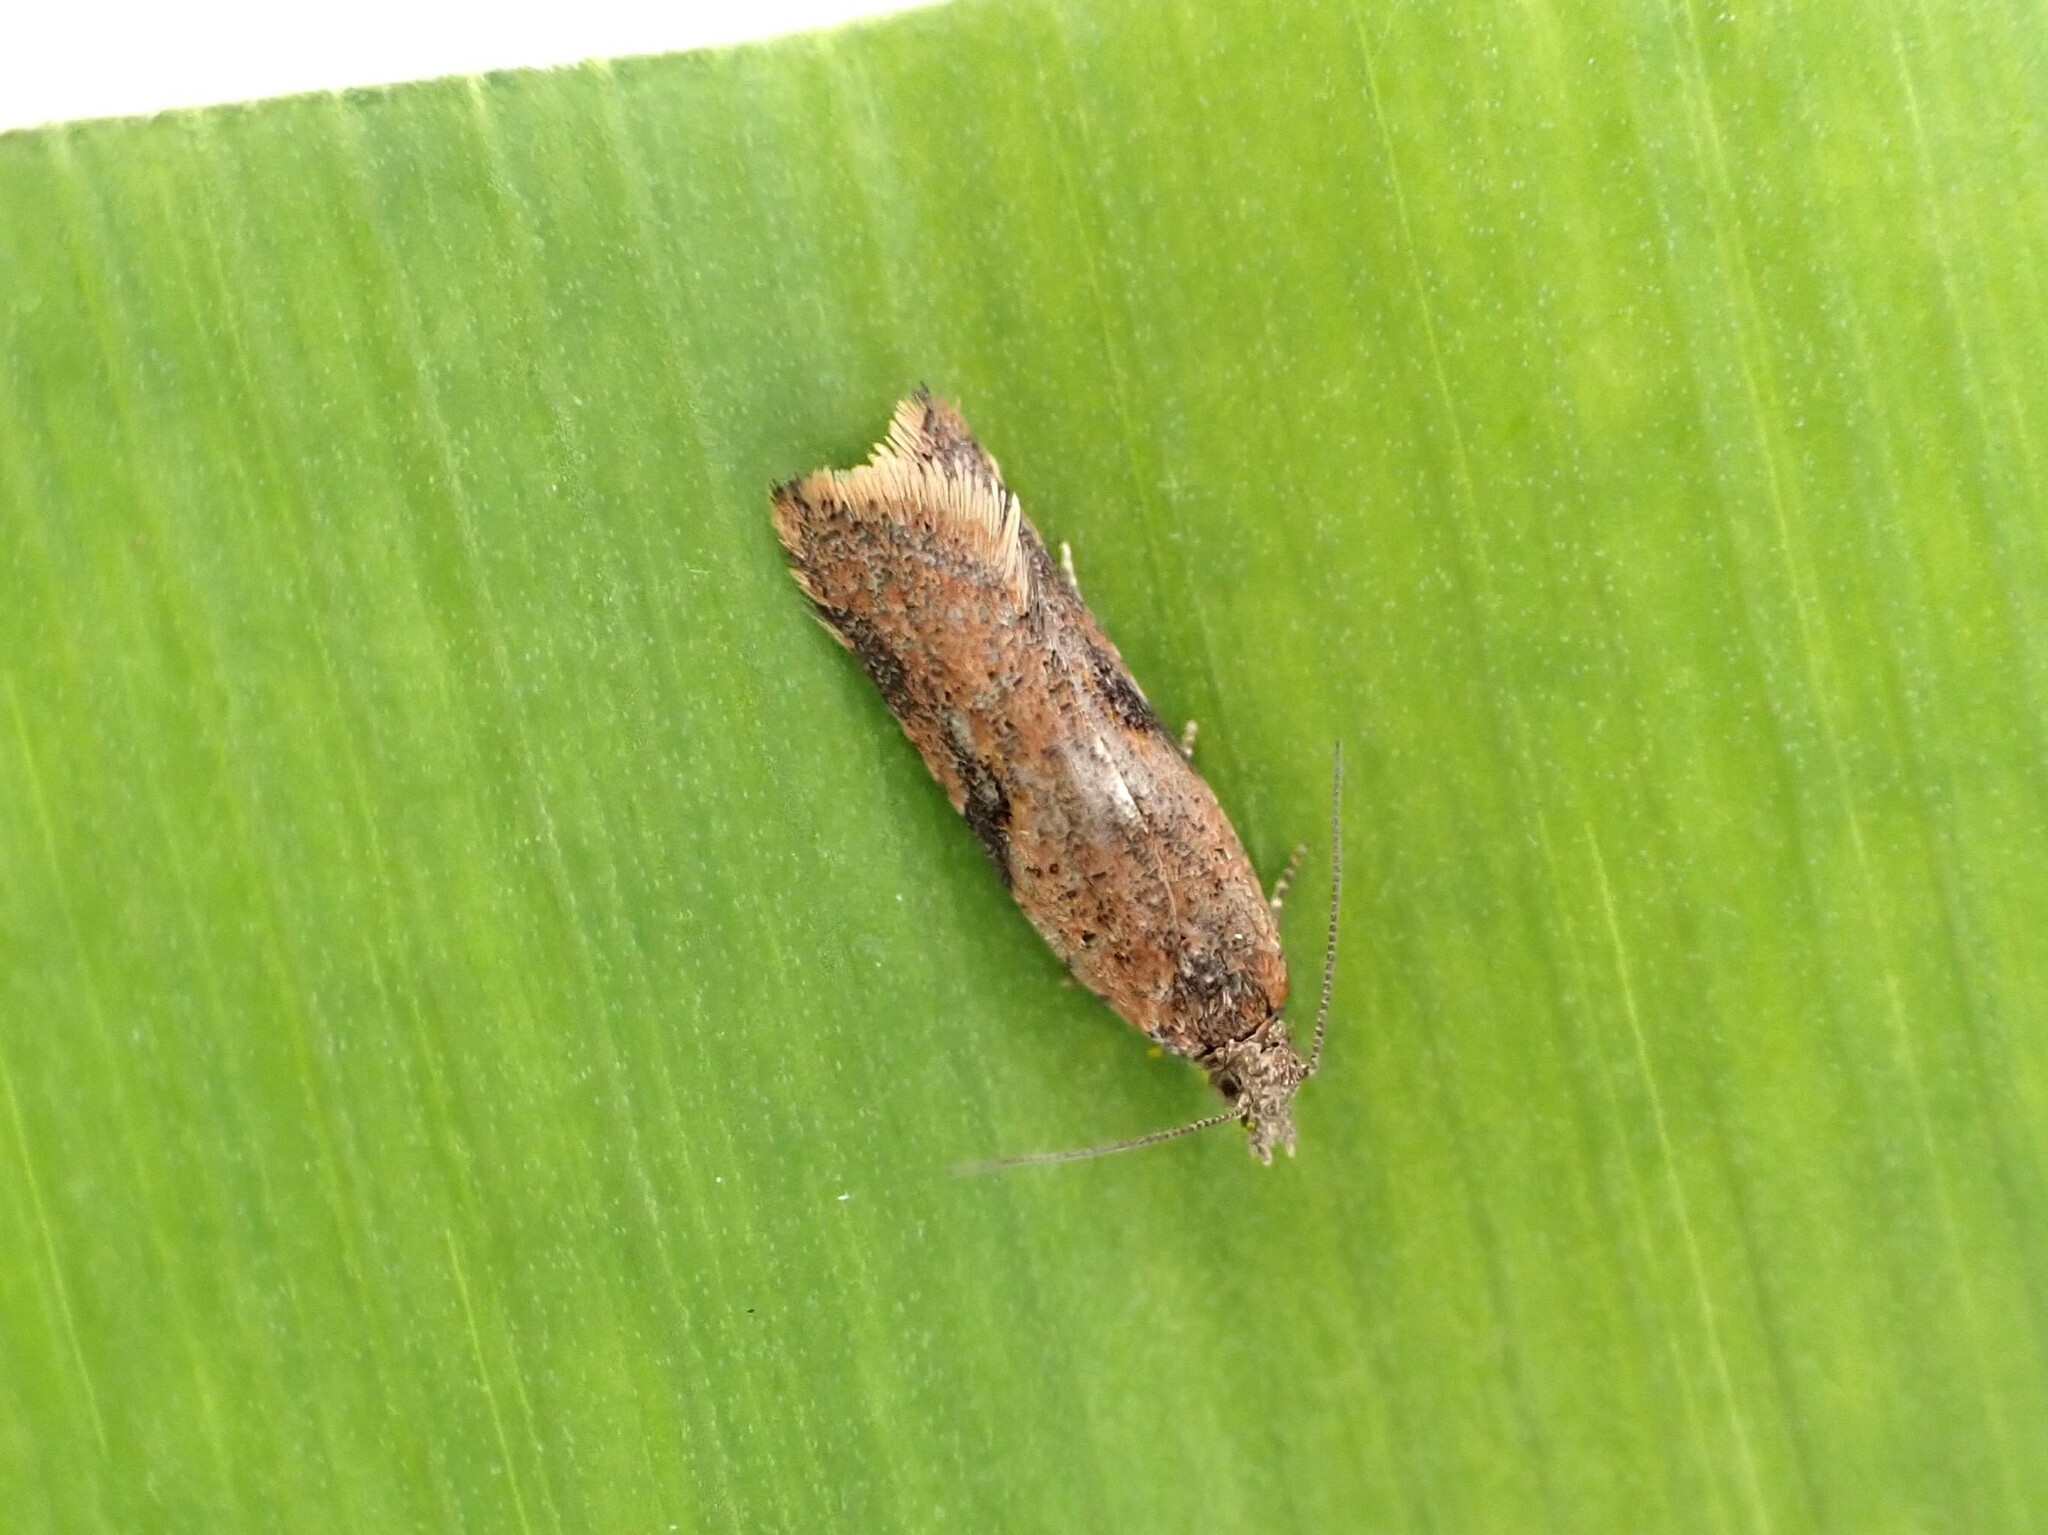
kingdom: Animalia
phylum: Arthropoda
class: Insecta
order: Lepidoptera
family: Tortricidae
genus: Capua
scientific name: Capua semiferana
